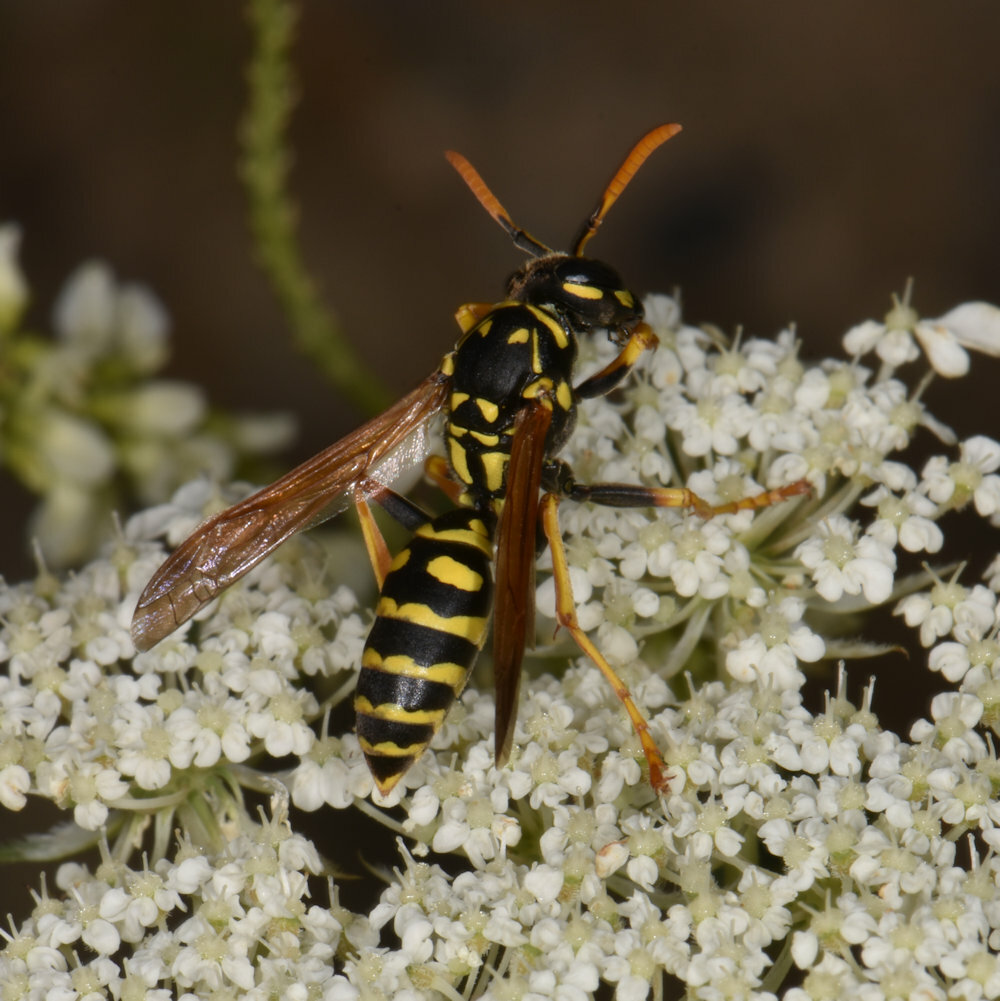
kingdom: Animalia
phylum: Arthropoda
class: Insecta
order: Hymenoptera
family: Eumenidae
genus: Polistes
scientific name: Polistes dominula
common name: Paper wasp
